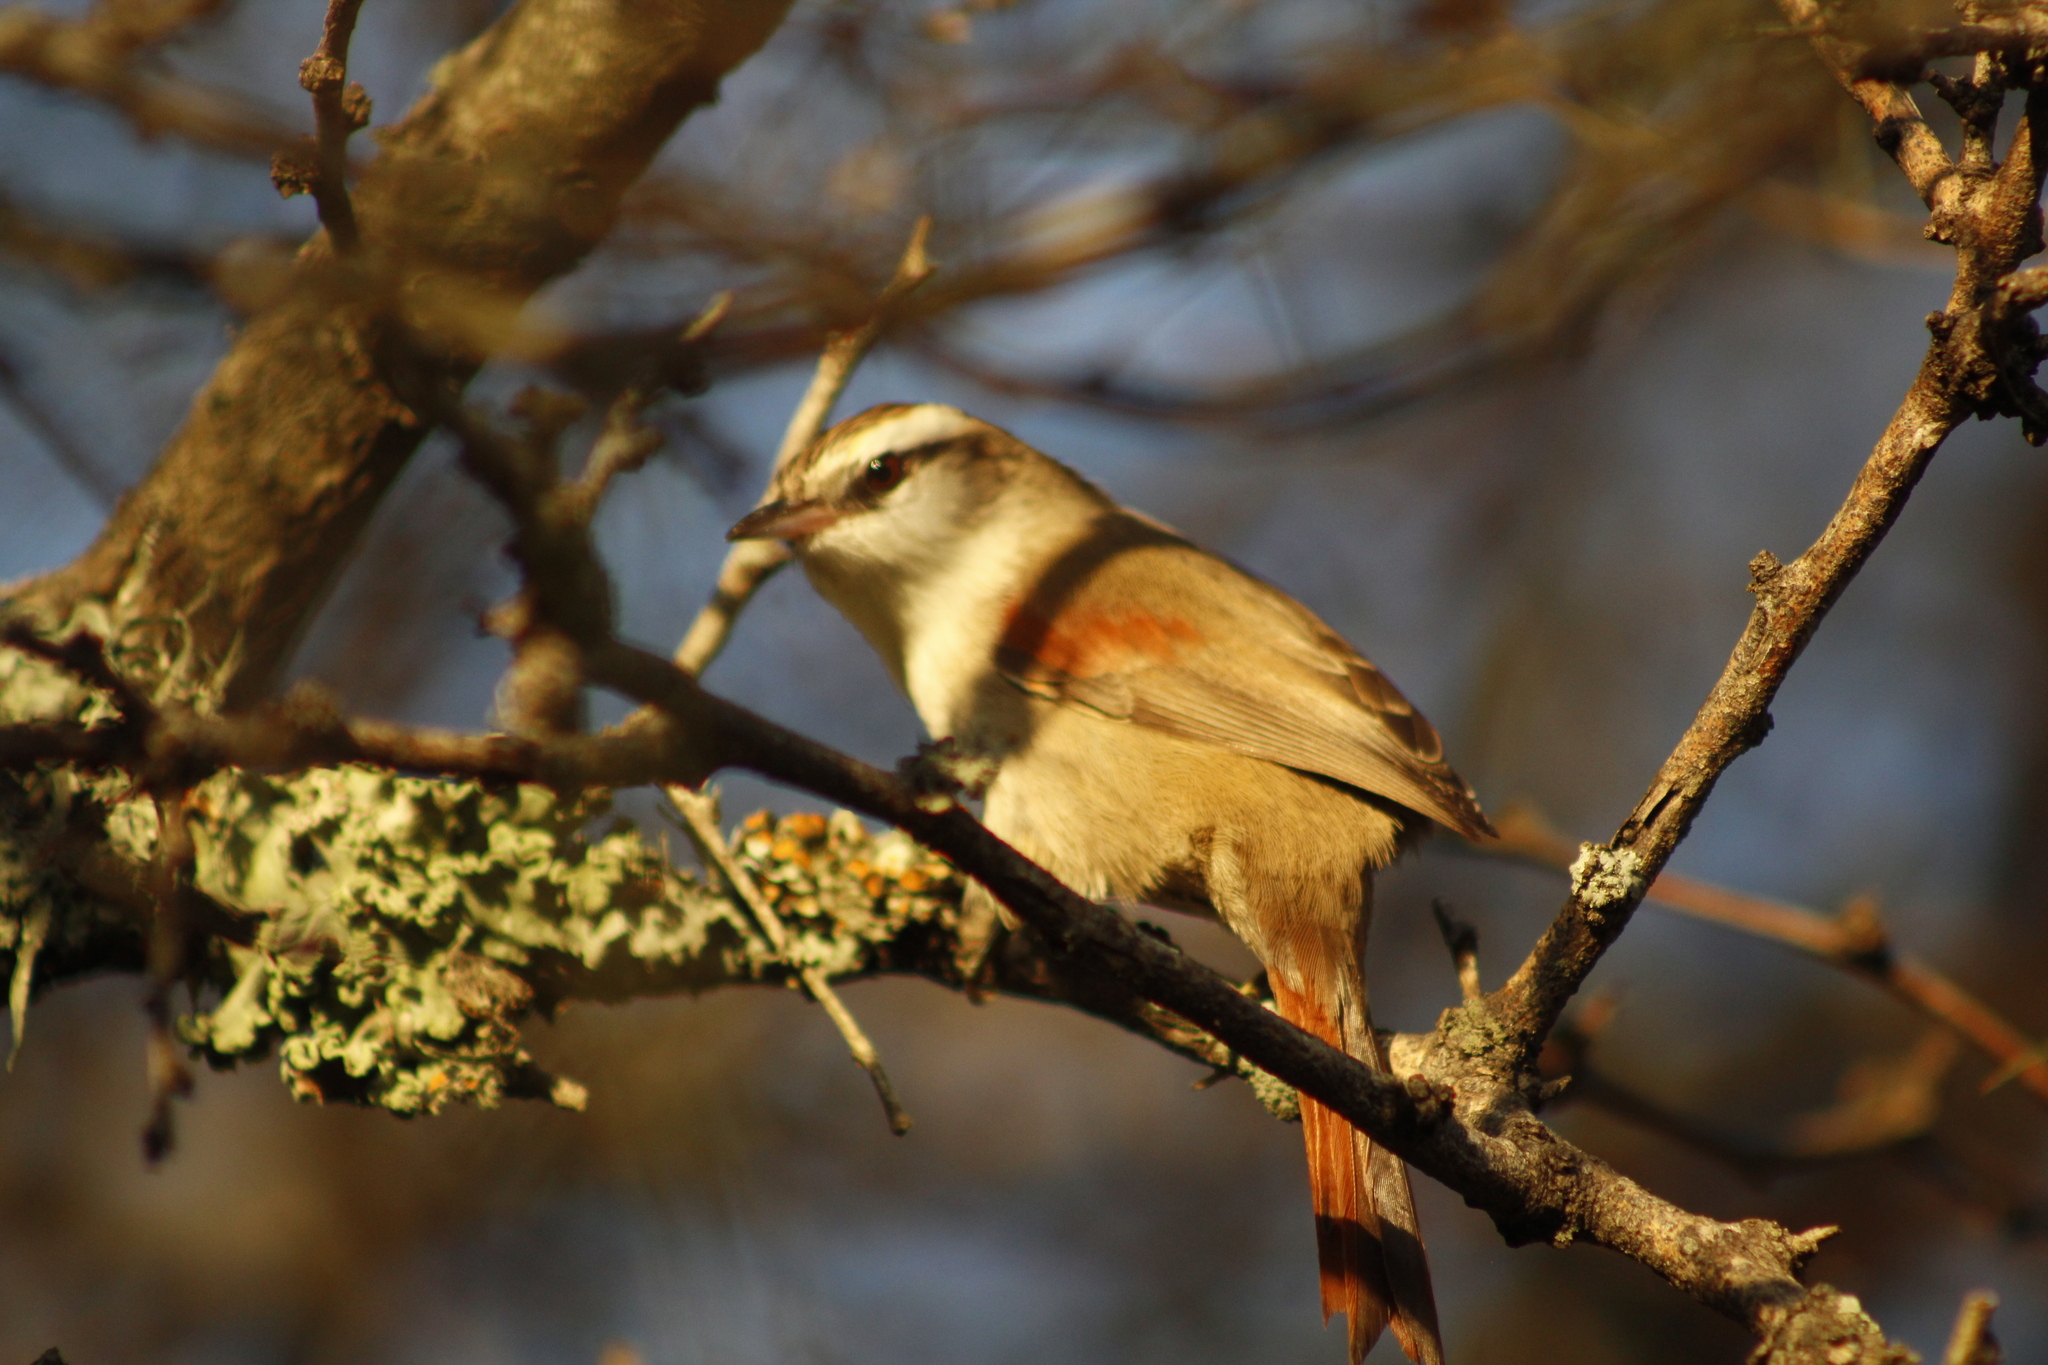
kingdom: Animalia
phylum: Chordata
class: Aves
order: Passeriformes
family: Furnariidae
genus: Cranioleuca
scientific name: Cranioleuca pyrrhophia
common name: Stripe-crowned spinetail
